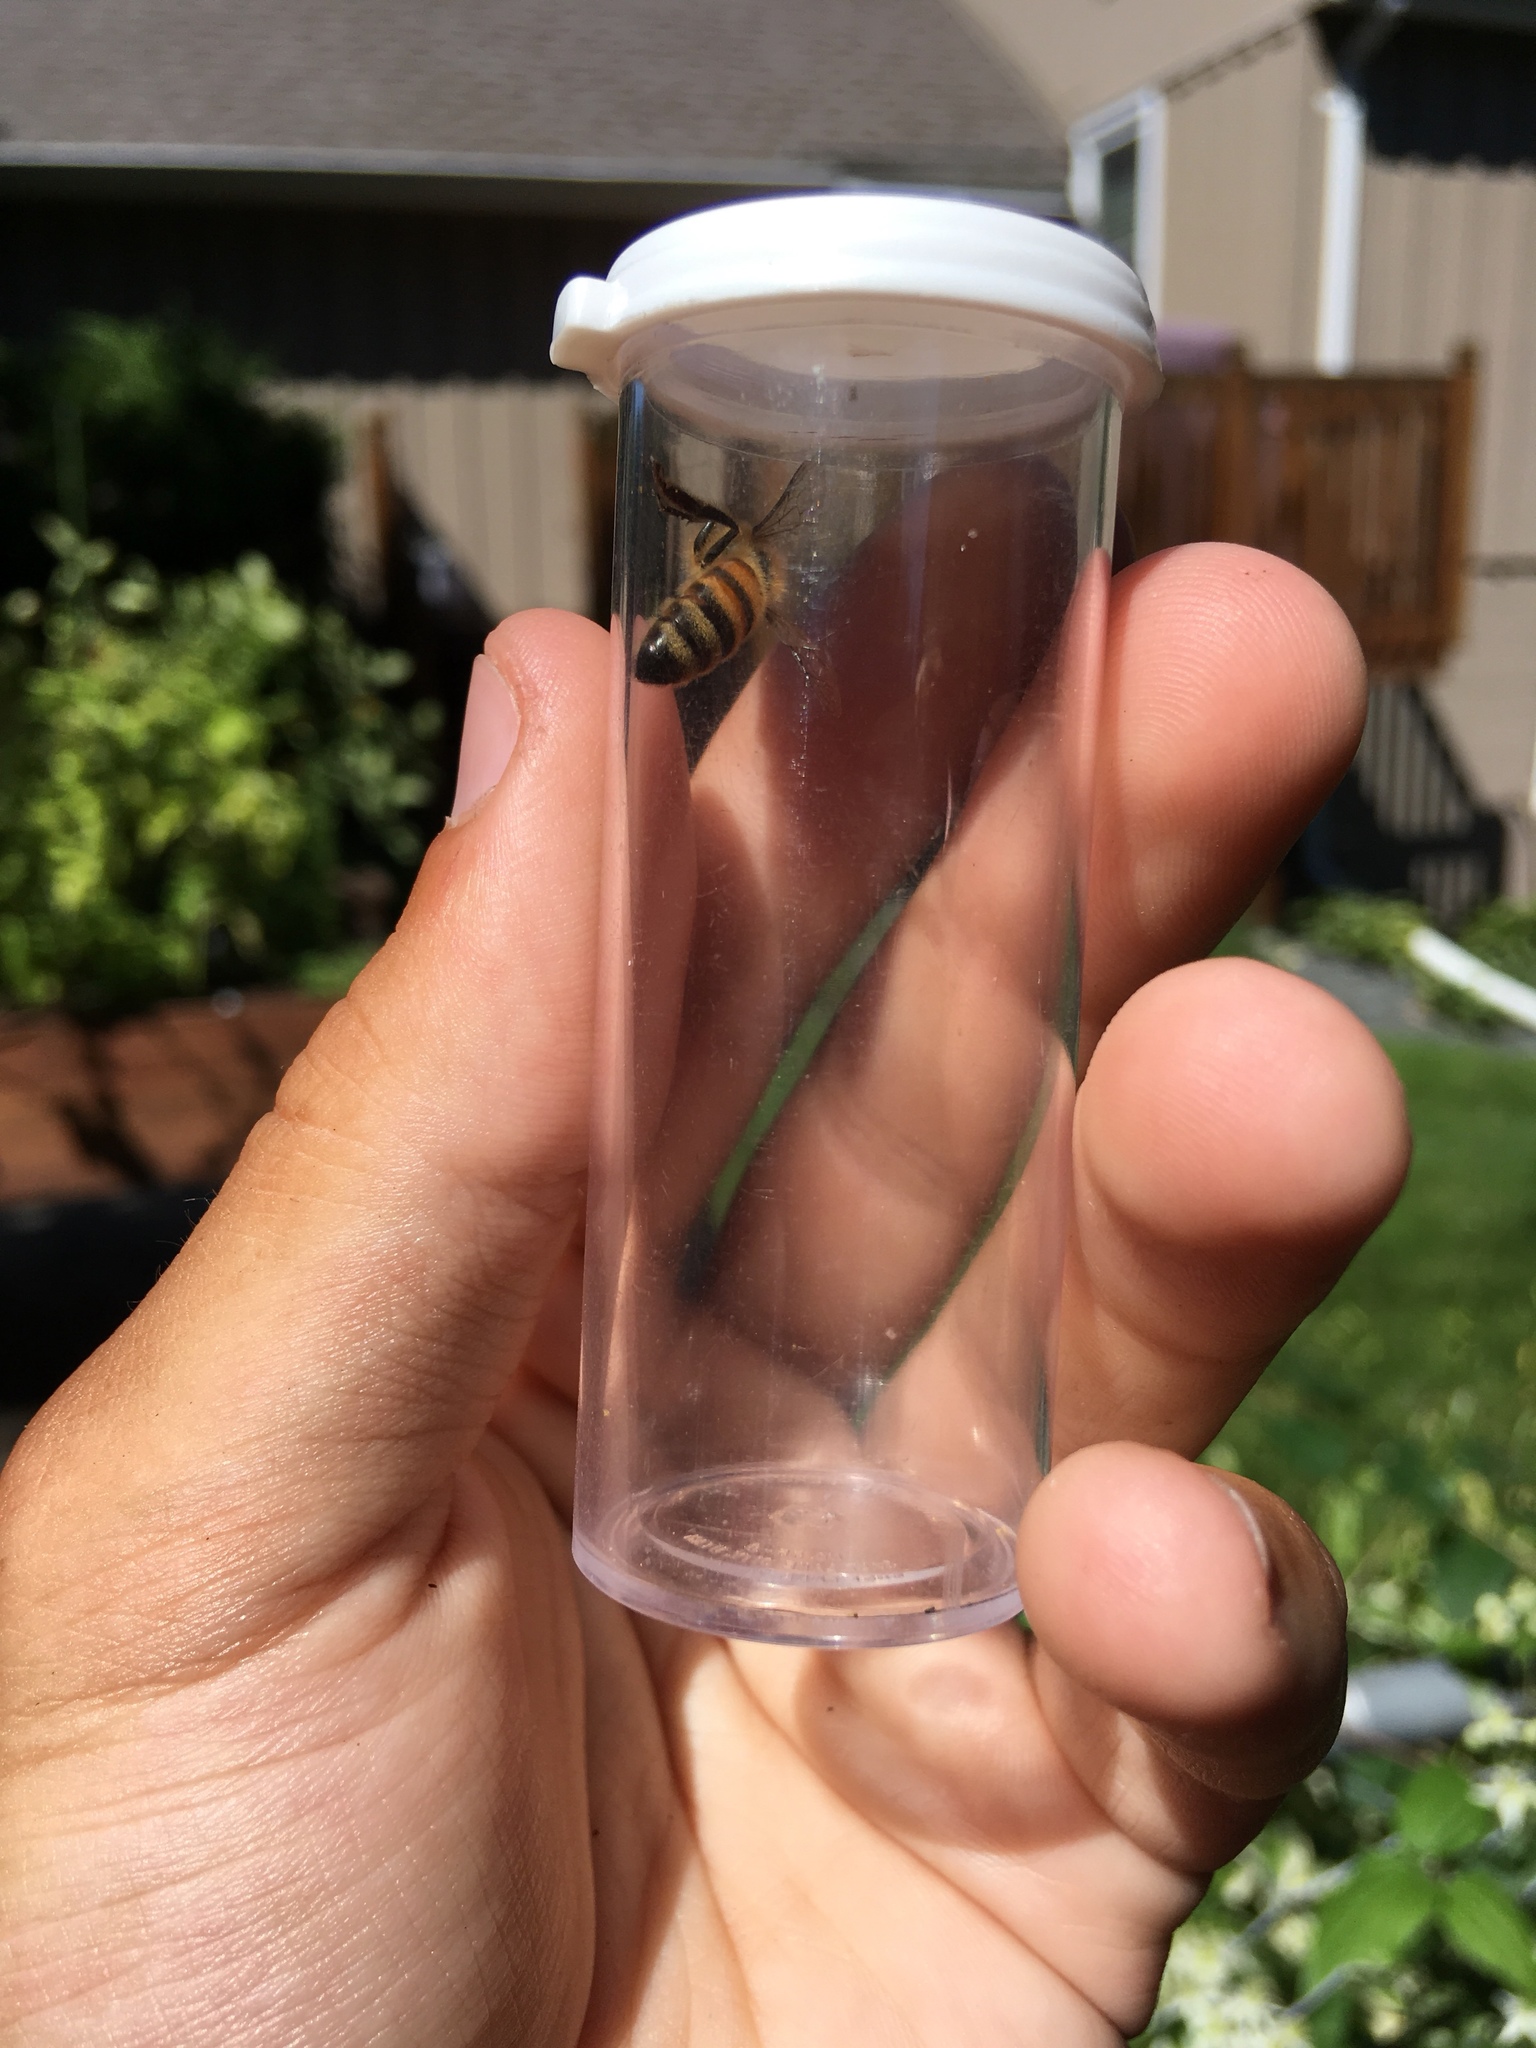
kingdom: Animalia
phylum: Arthropoda
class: Insecta
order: Hymenoptera
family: Apidae
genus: Apis
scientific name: Apis mellifera
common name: Honey bee
